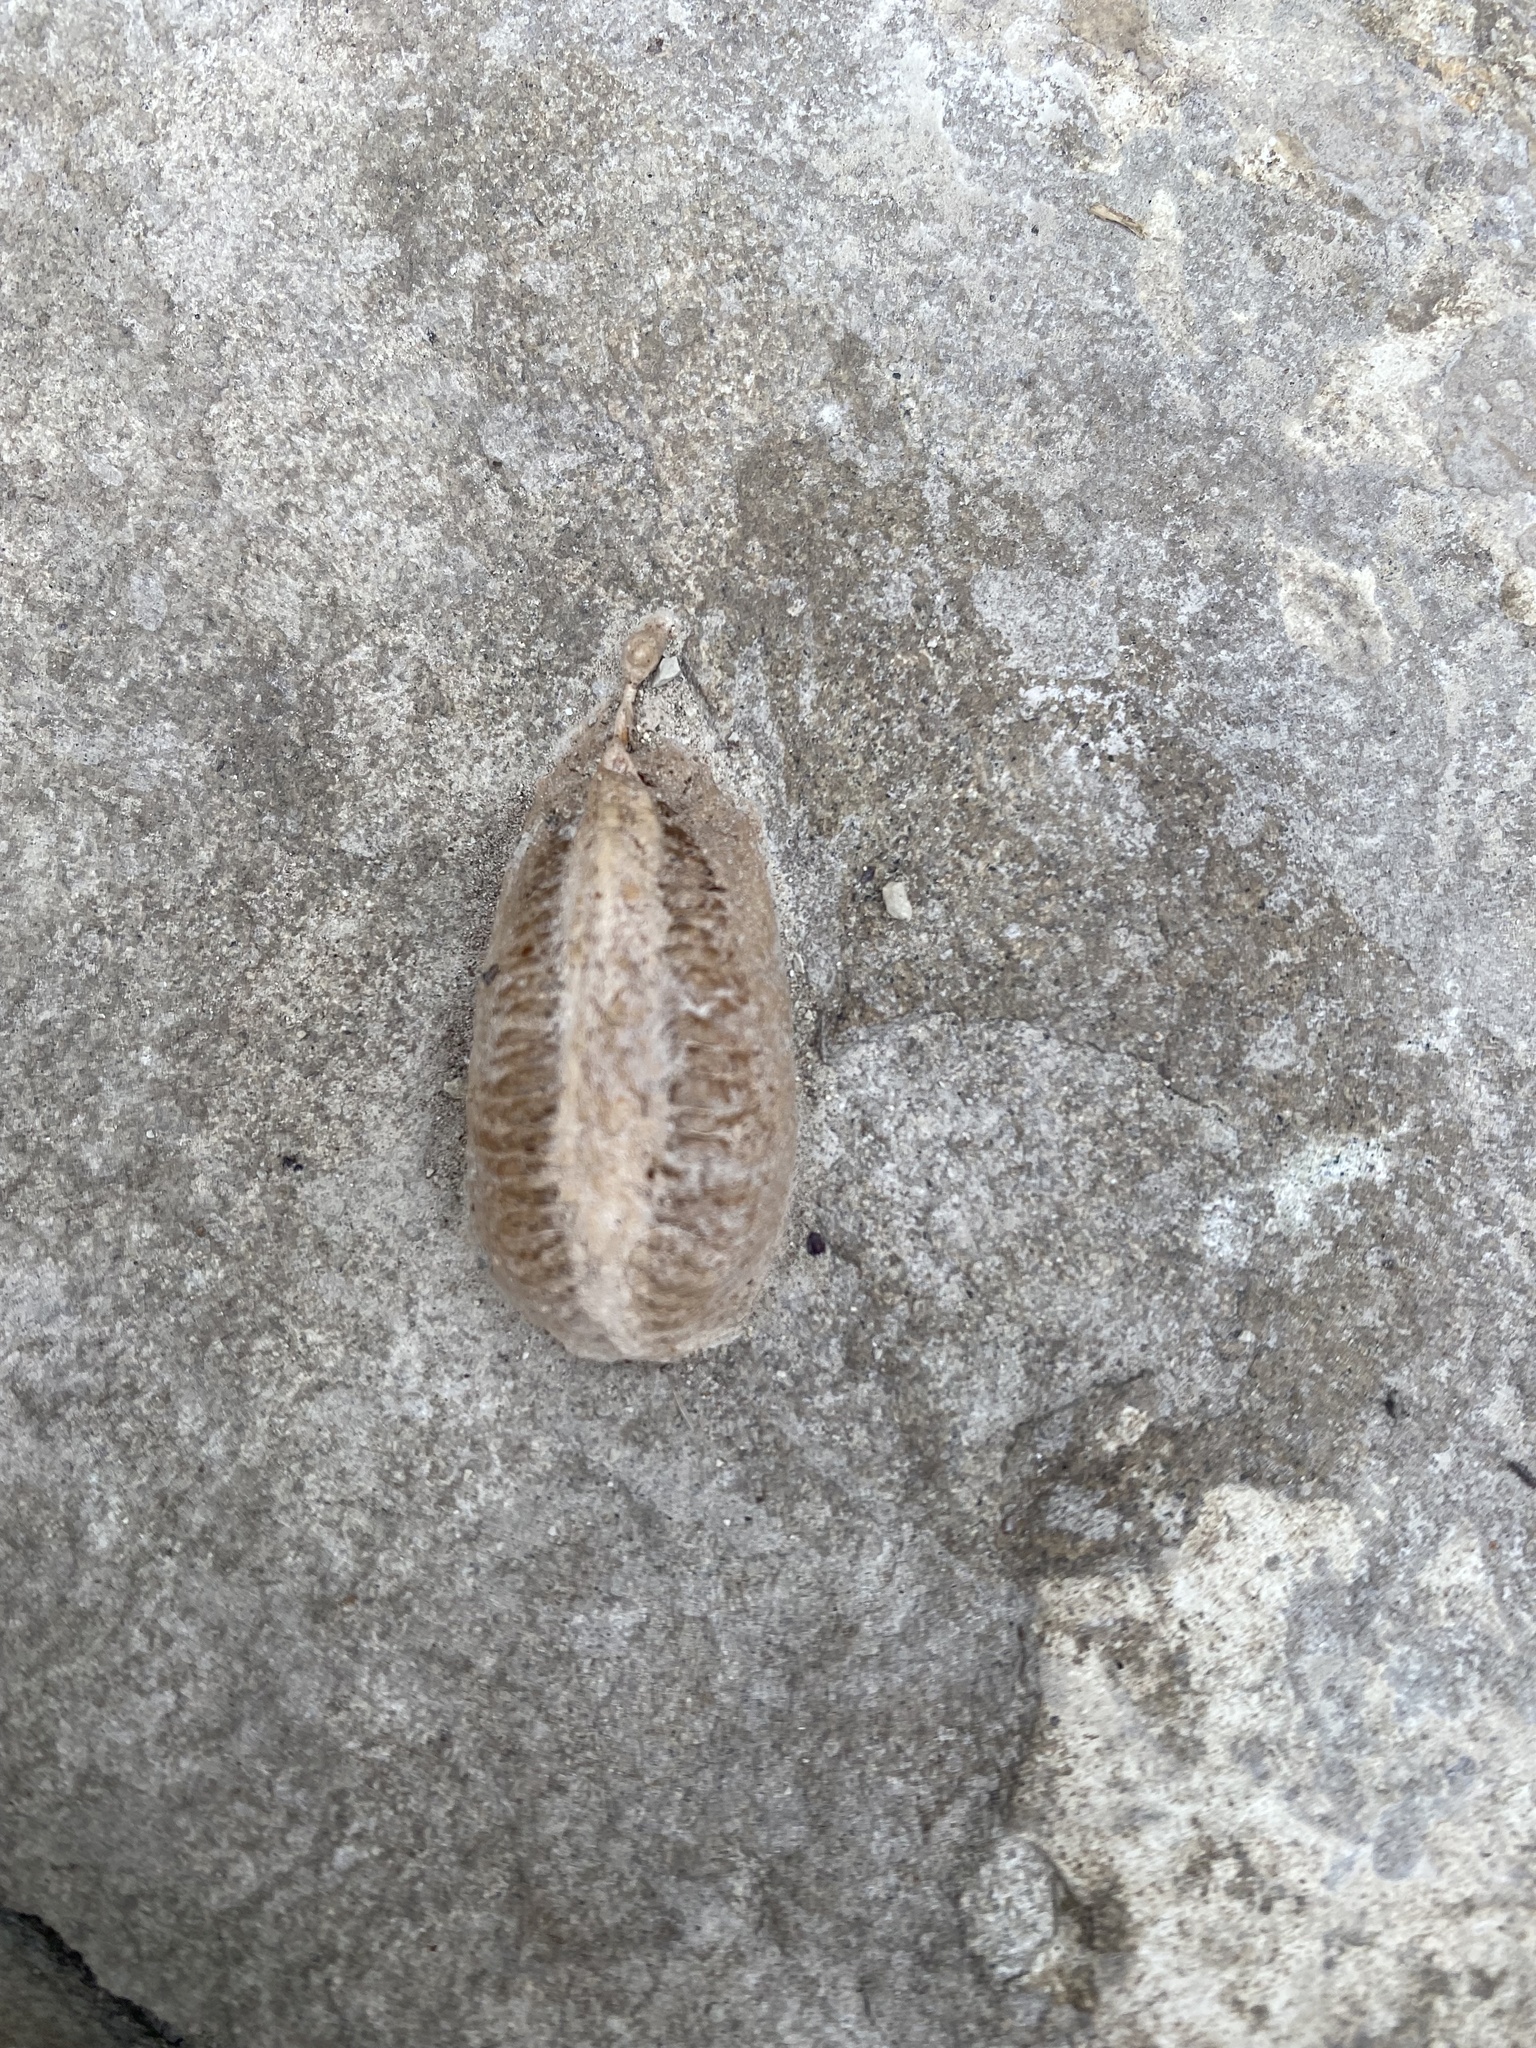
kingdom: Animalia
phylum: Arthropoda
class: Insecta
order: Mantodea
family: Mantidae
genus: Mantis
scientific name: Mantis religiosa
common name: Praying mantis
